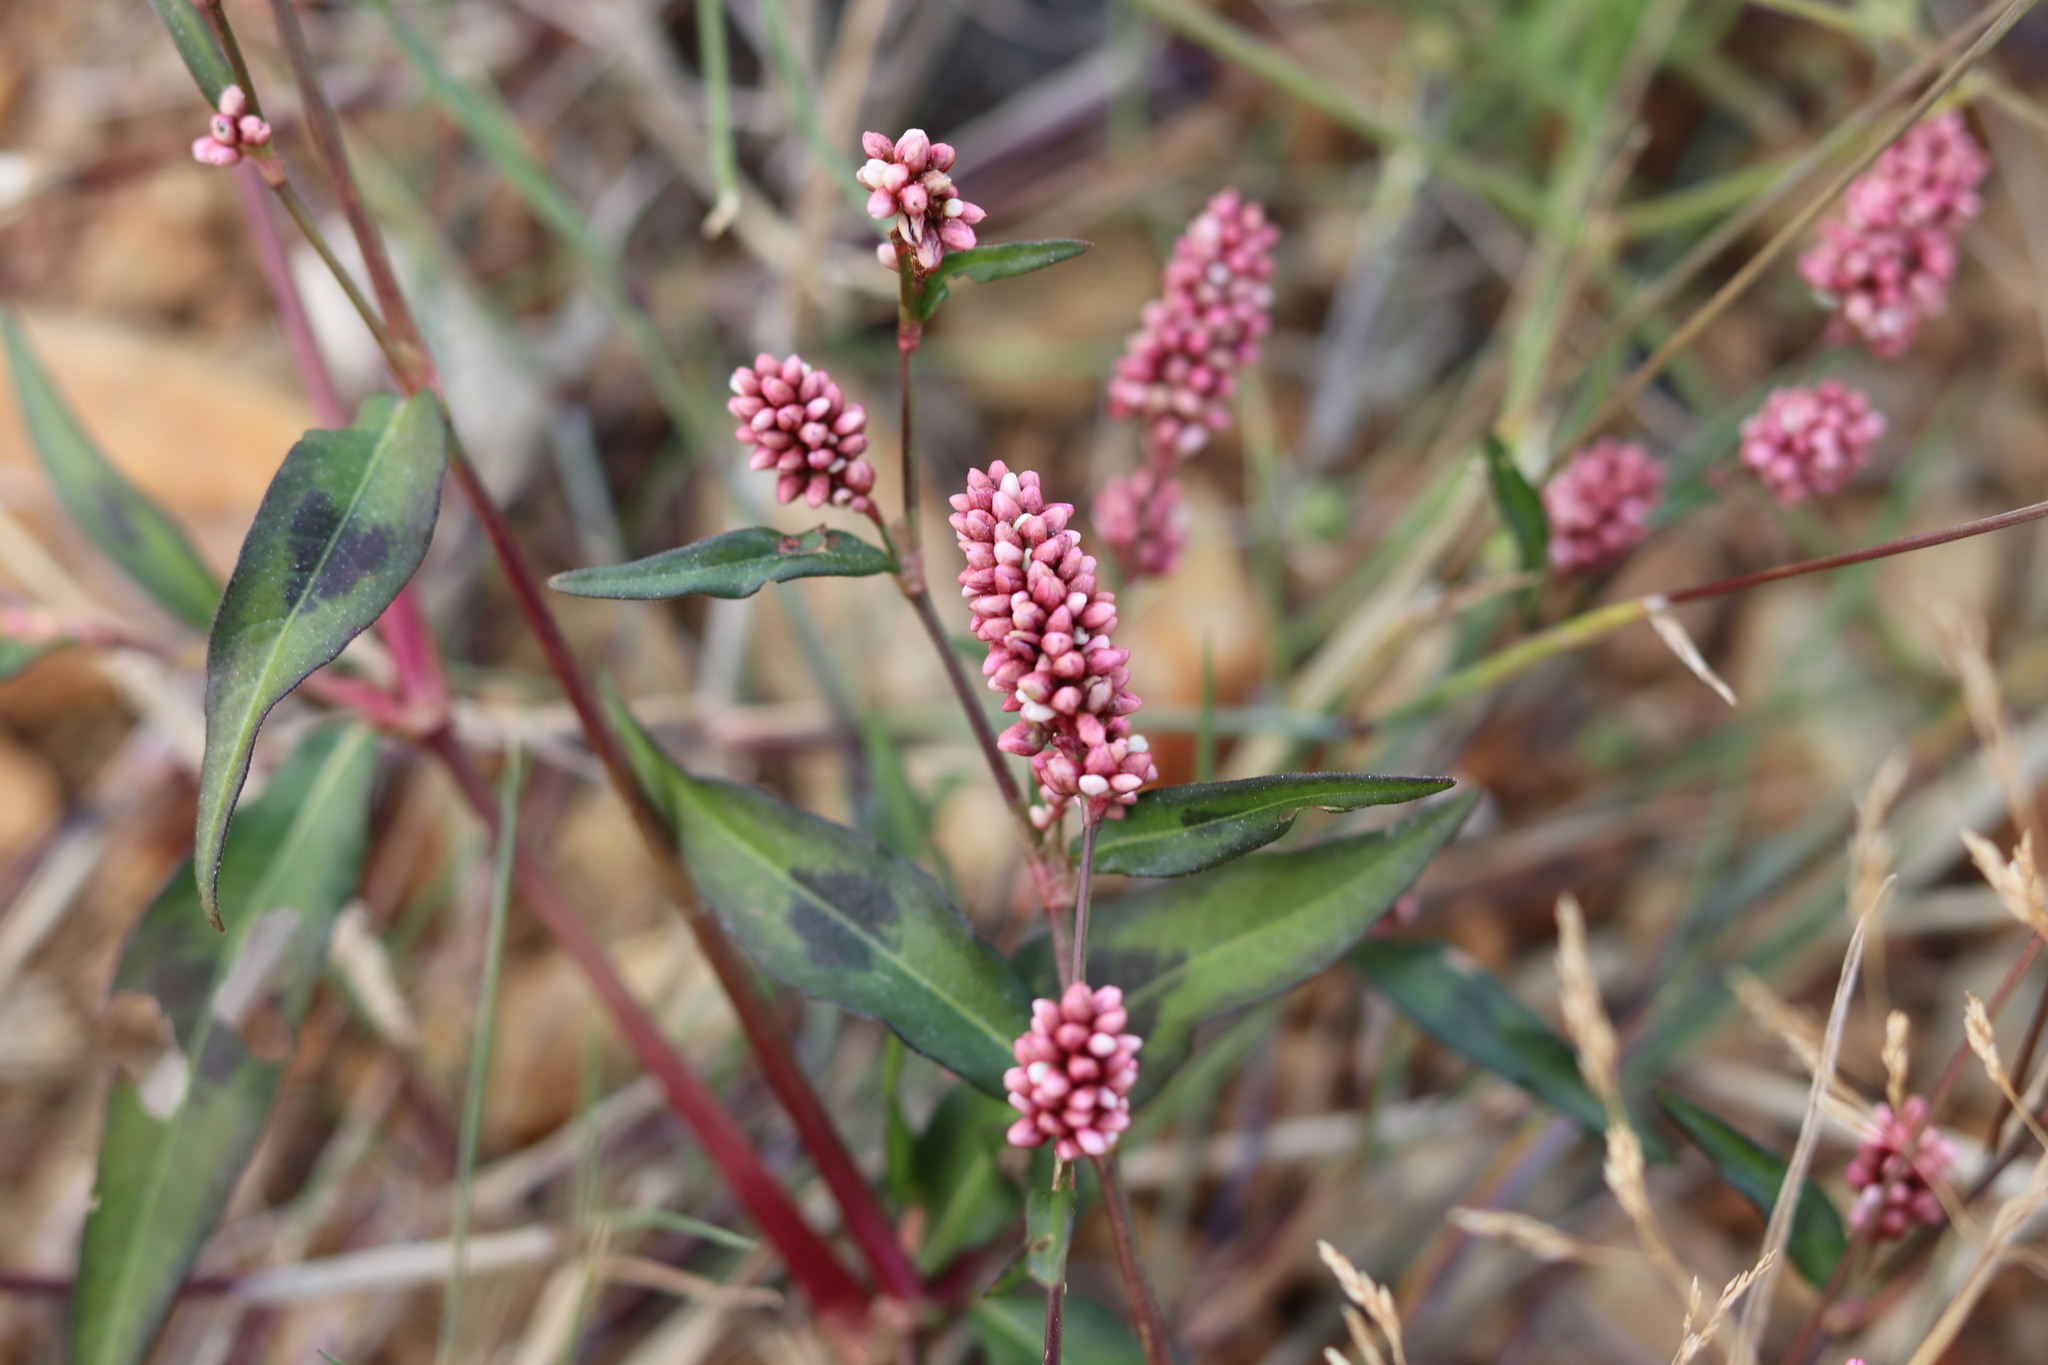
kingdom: Plantae
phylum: Tracheophyta
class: Magnoliopsida
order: Caryophyllales
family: Polygonaceae
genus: Persicaria
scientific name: Persicaria maculosa
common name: Redshank
